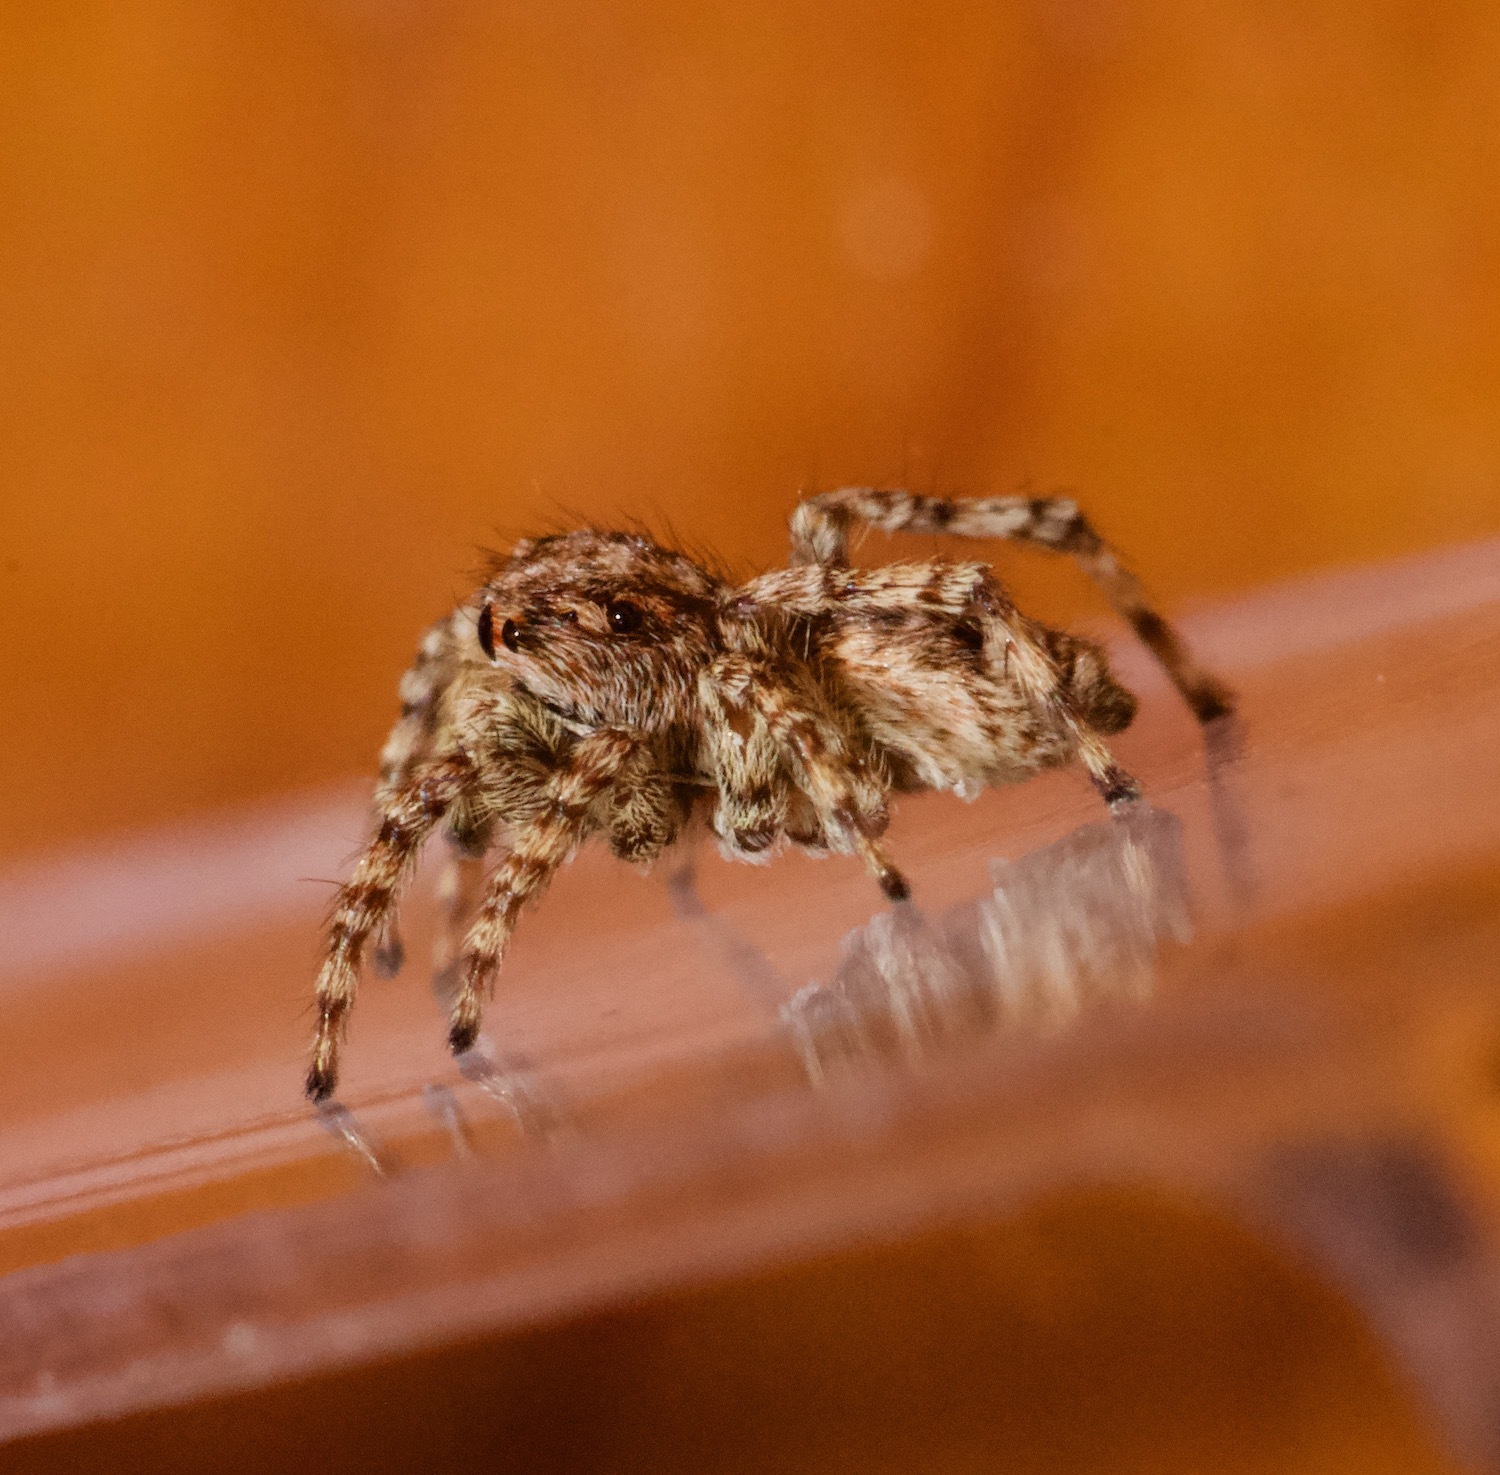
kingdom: Animalia
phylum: Arthropoda
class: Arachnida
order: Araneae
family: Salticidae
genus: Attulus
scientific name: Attulus fasciger
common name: Asiatic wall jumping spider
